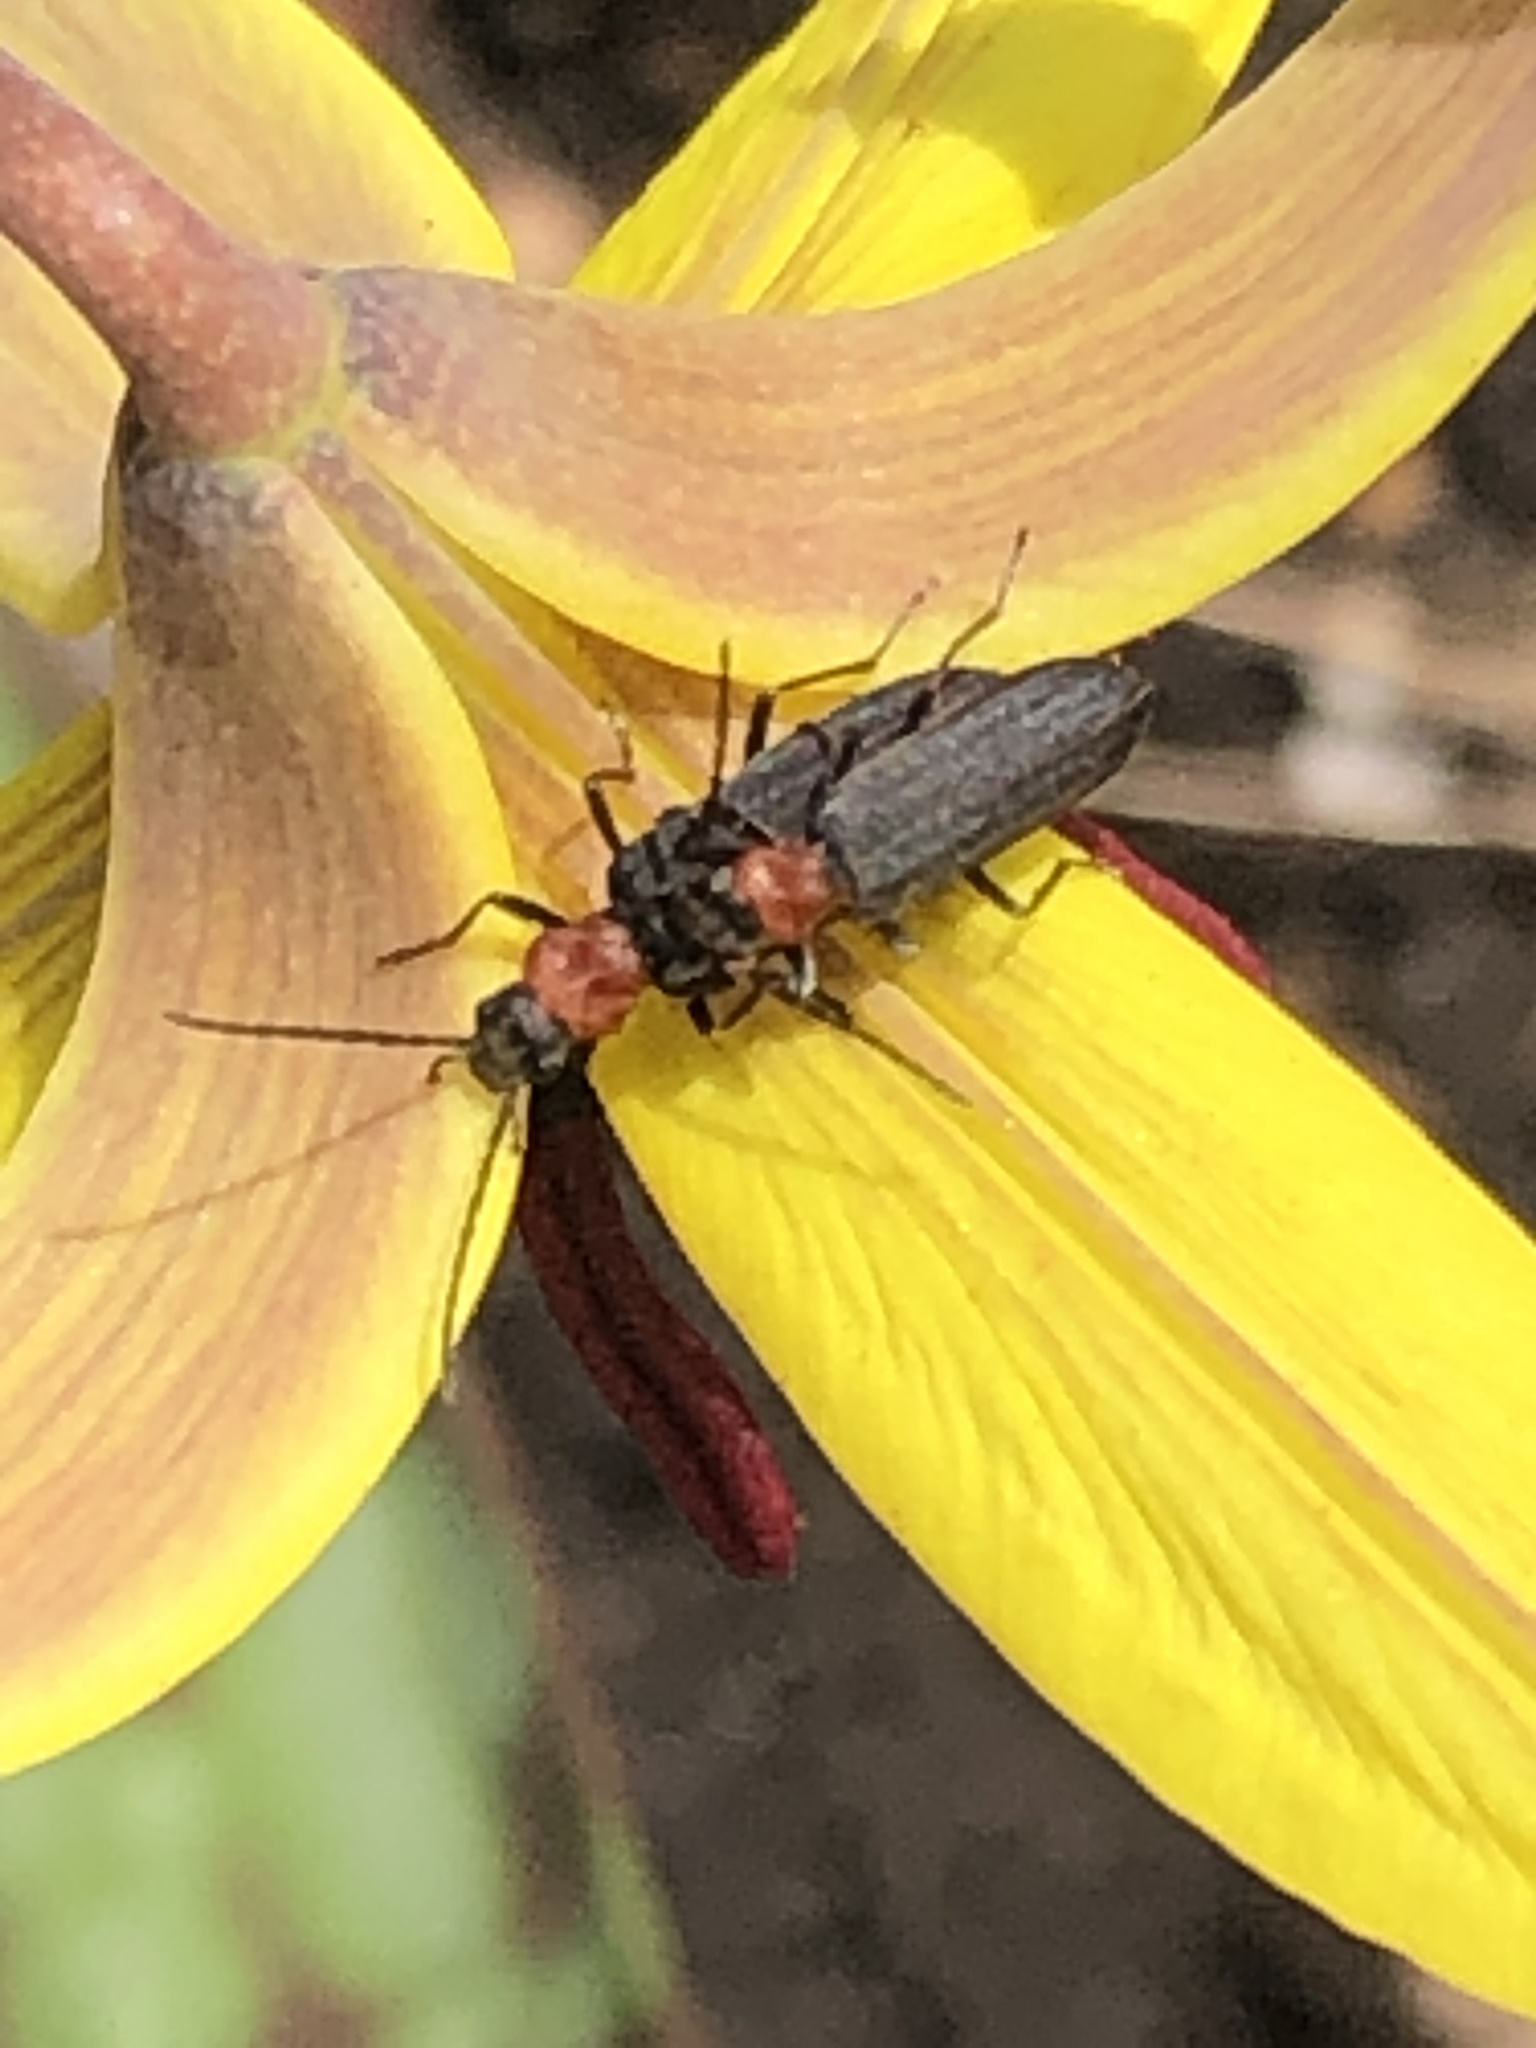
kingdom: Animalia
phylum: Arthropoda
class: Insecta
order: Coleoptera
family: Oedemeridae
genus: Ischnomera
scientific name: Ischnomera
